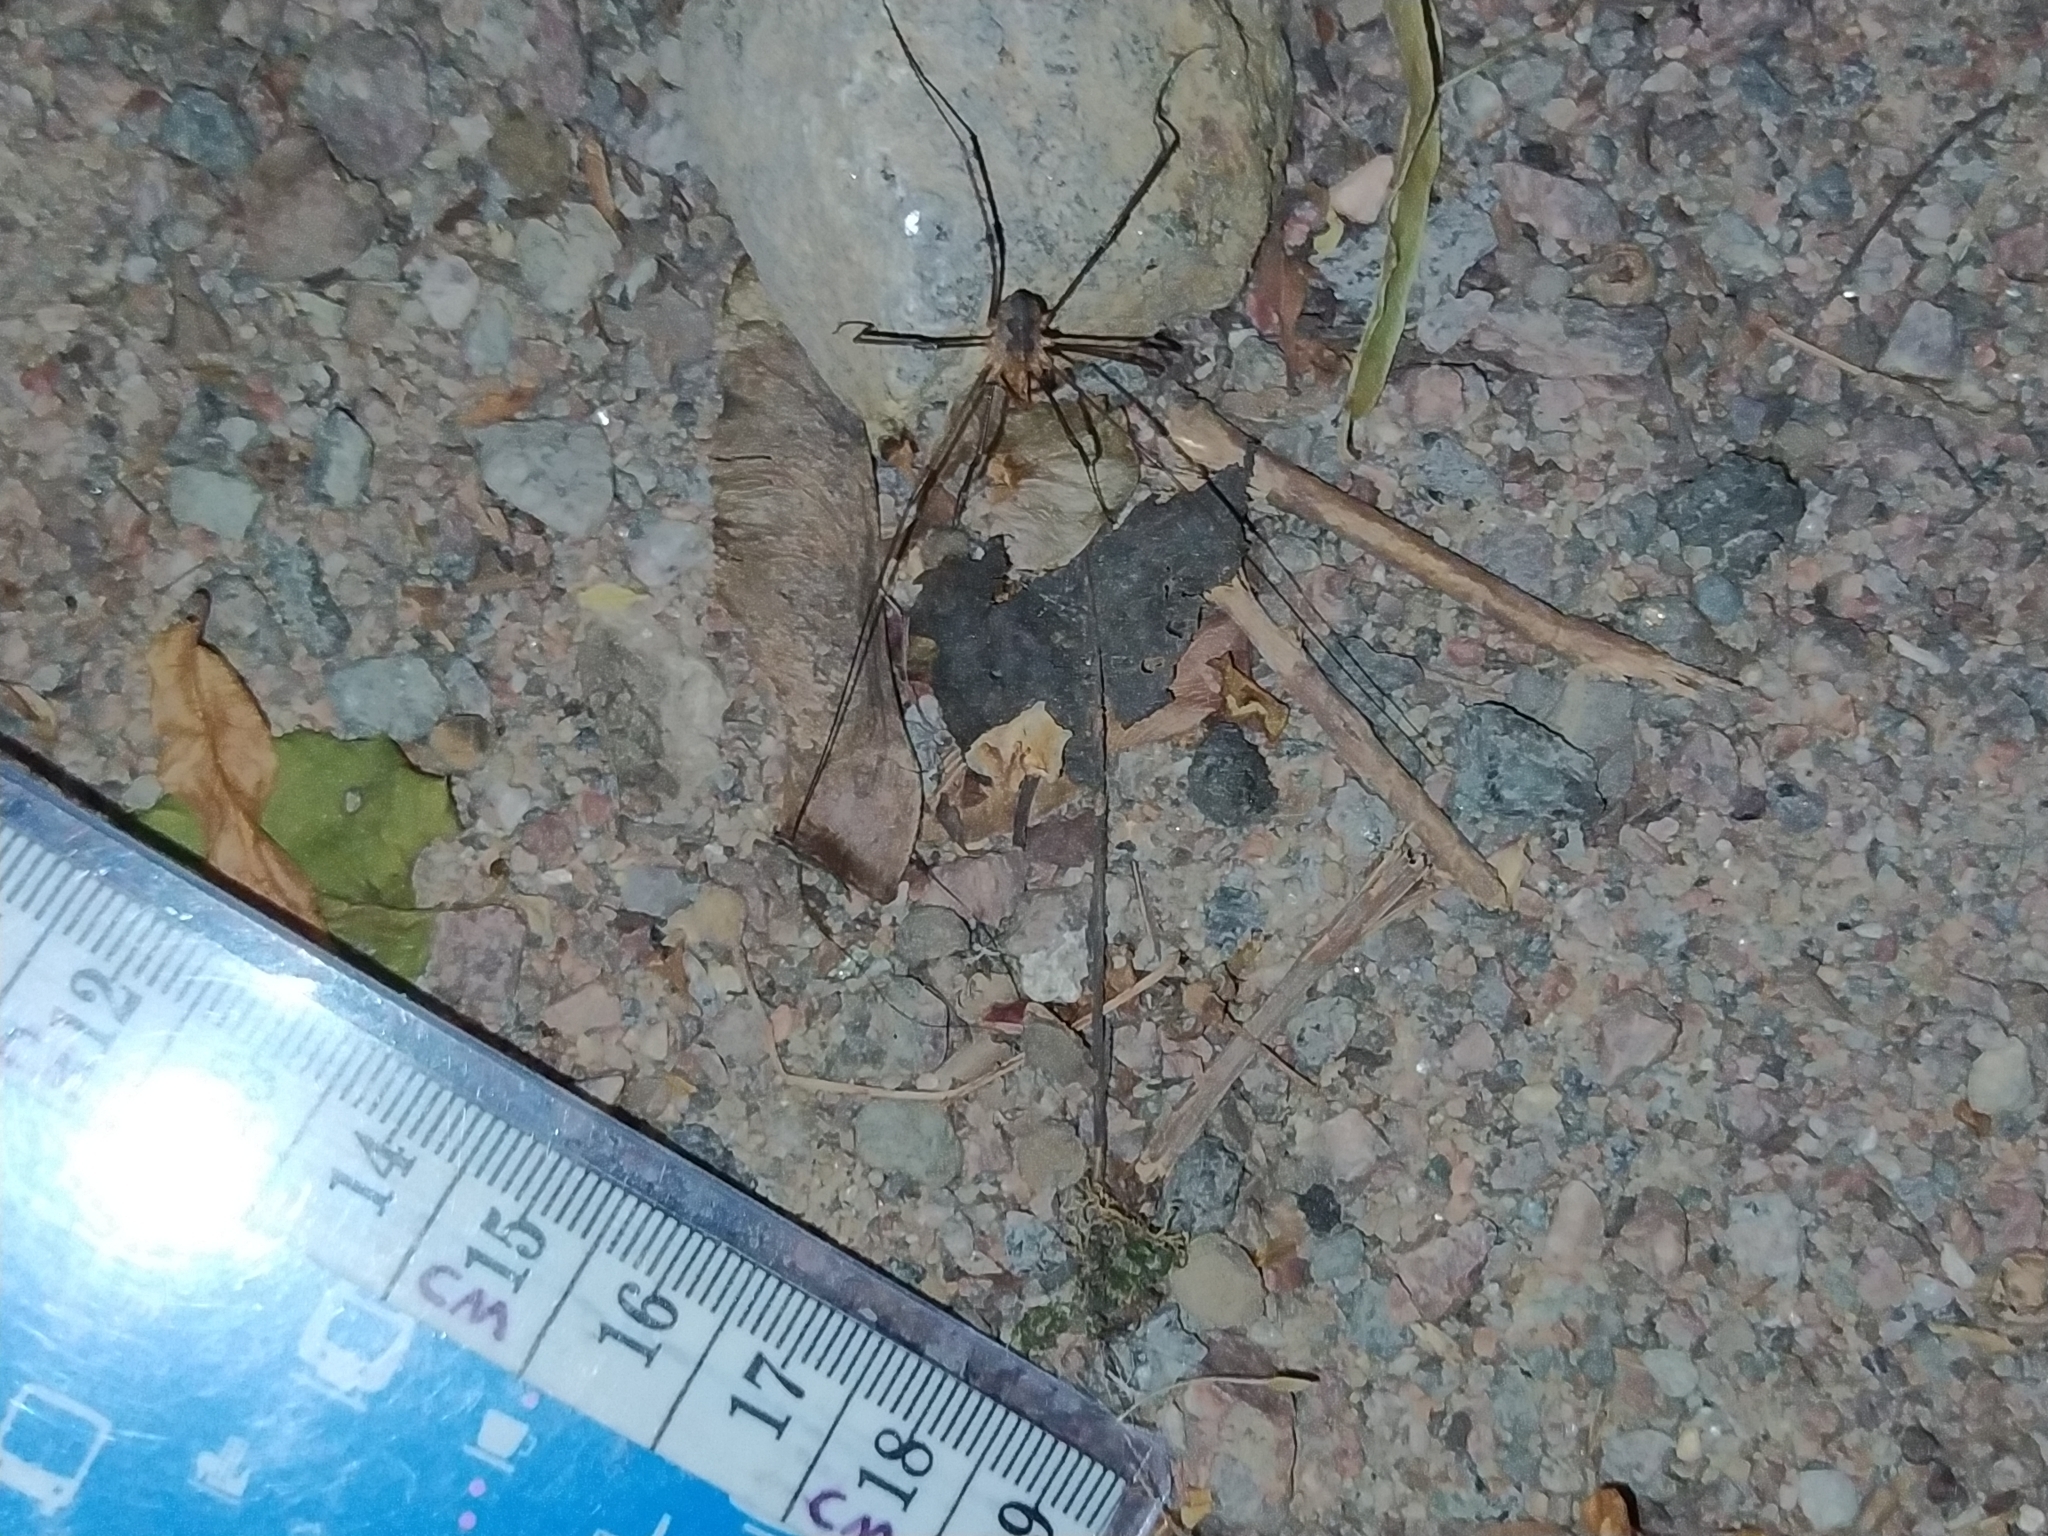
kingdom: Animalia
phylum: Arthropoda
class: Arachnida
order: Opiliones
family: Phalangiidae
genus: Phalangium
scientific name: Phalangium opilio
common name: Daddy longleg
